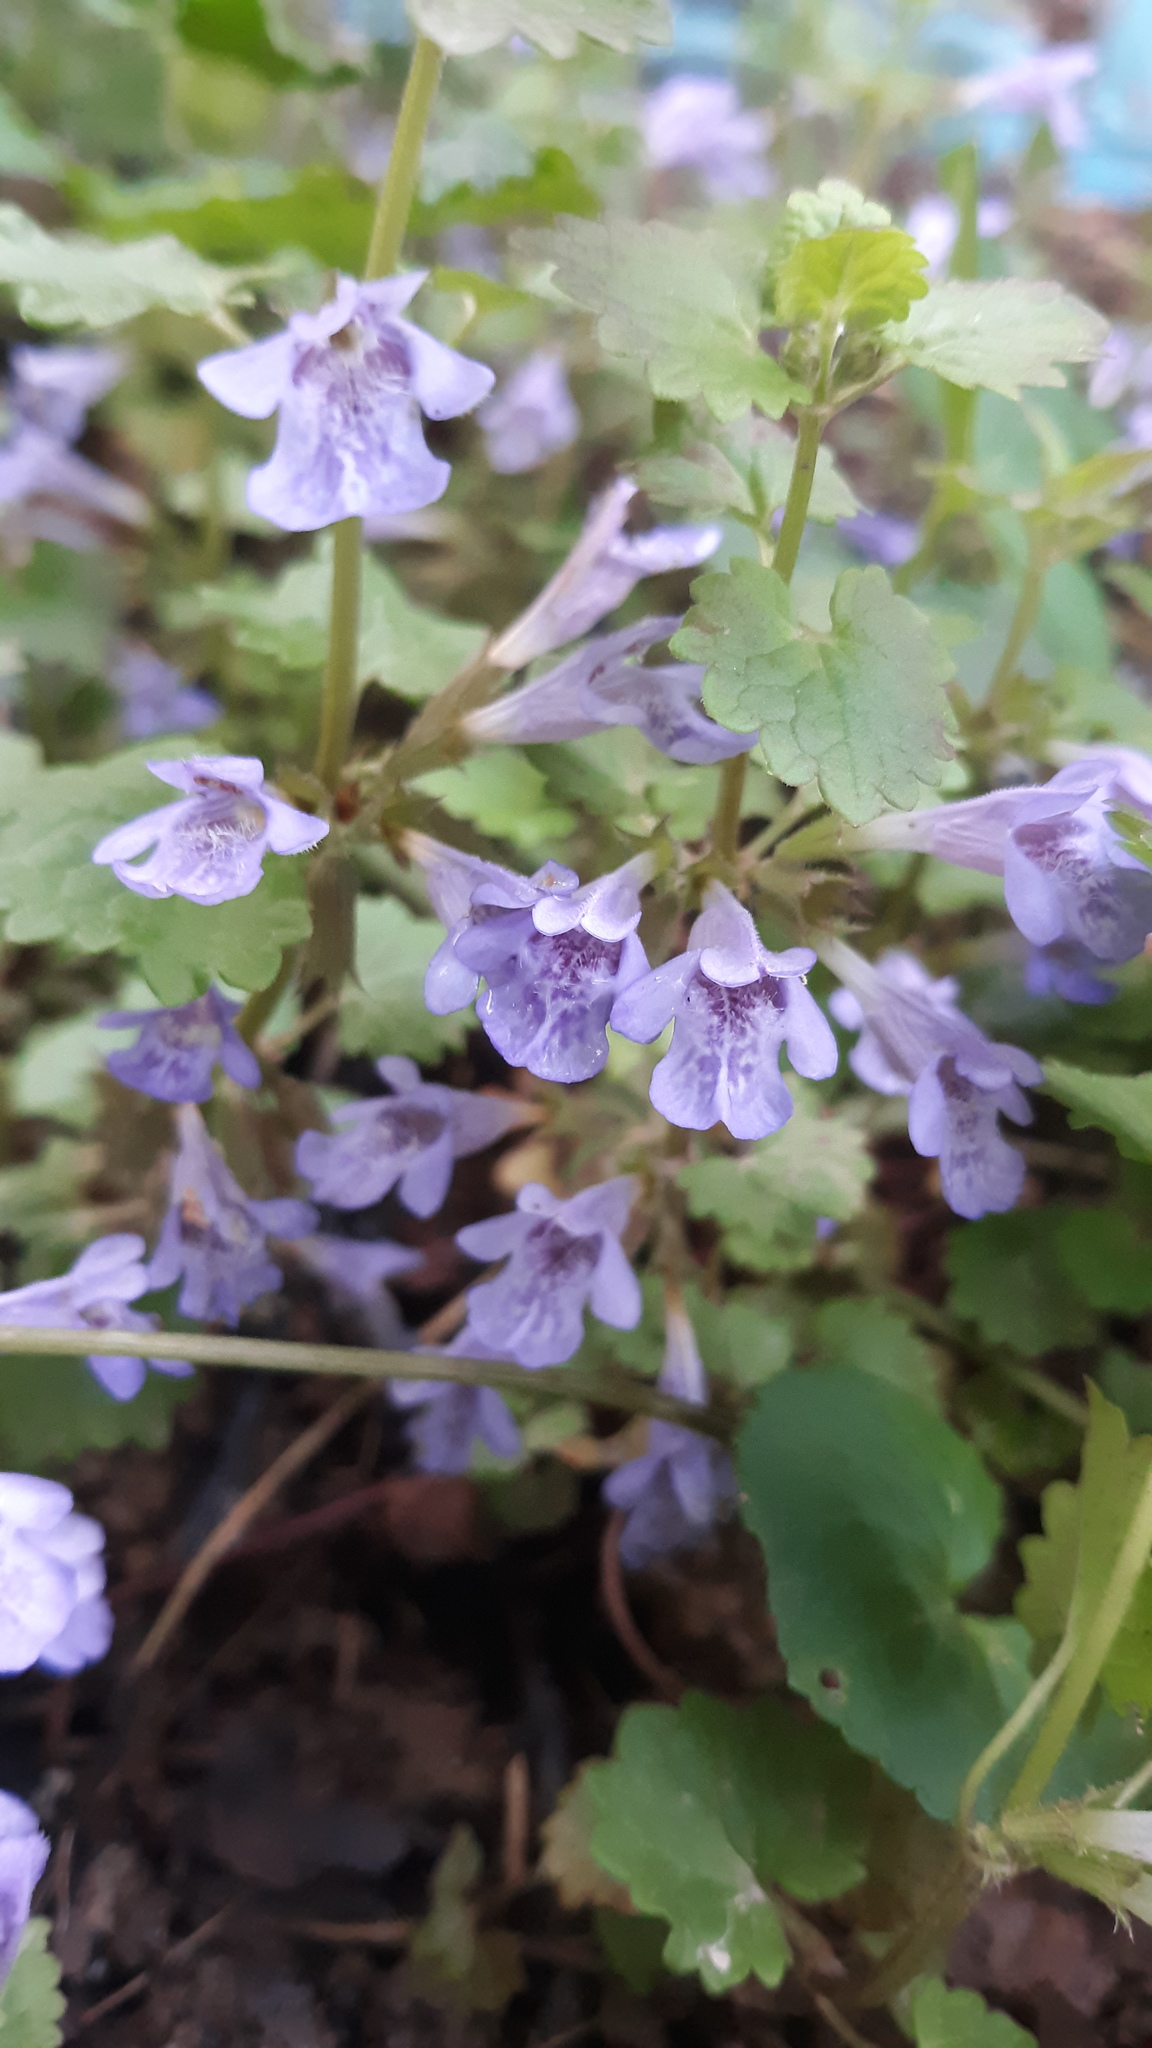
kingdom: Plantae
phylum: Tracheophyta
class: Magnoliopsida
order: Lamiales
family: Lamiaceae
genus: Glechoma
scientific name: Glechoma hederacea
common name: Ground ivy
